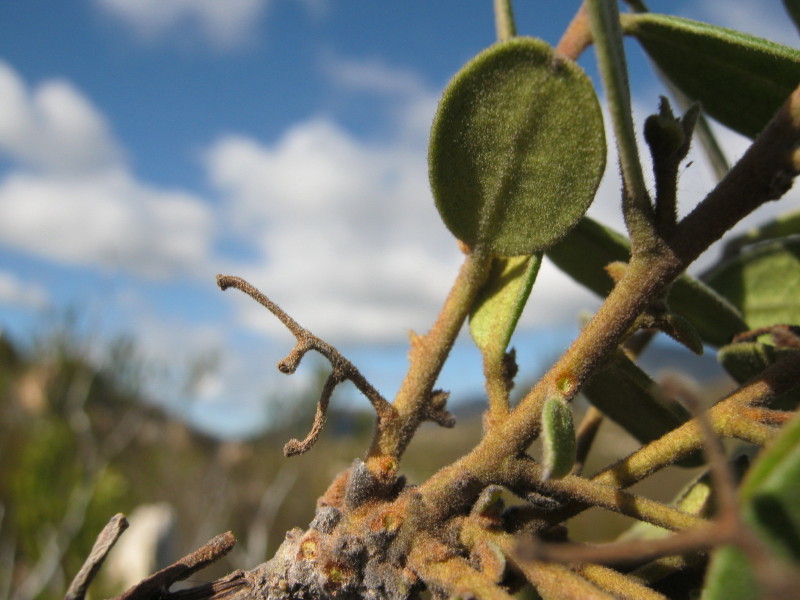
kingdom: Plantae
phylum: Tracheophyta
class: Magnoliopsida
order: Ericales
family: Ebenaceae
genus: Euclea
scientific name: Euclea polyandra
